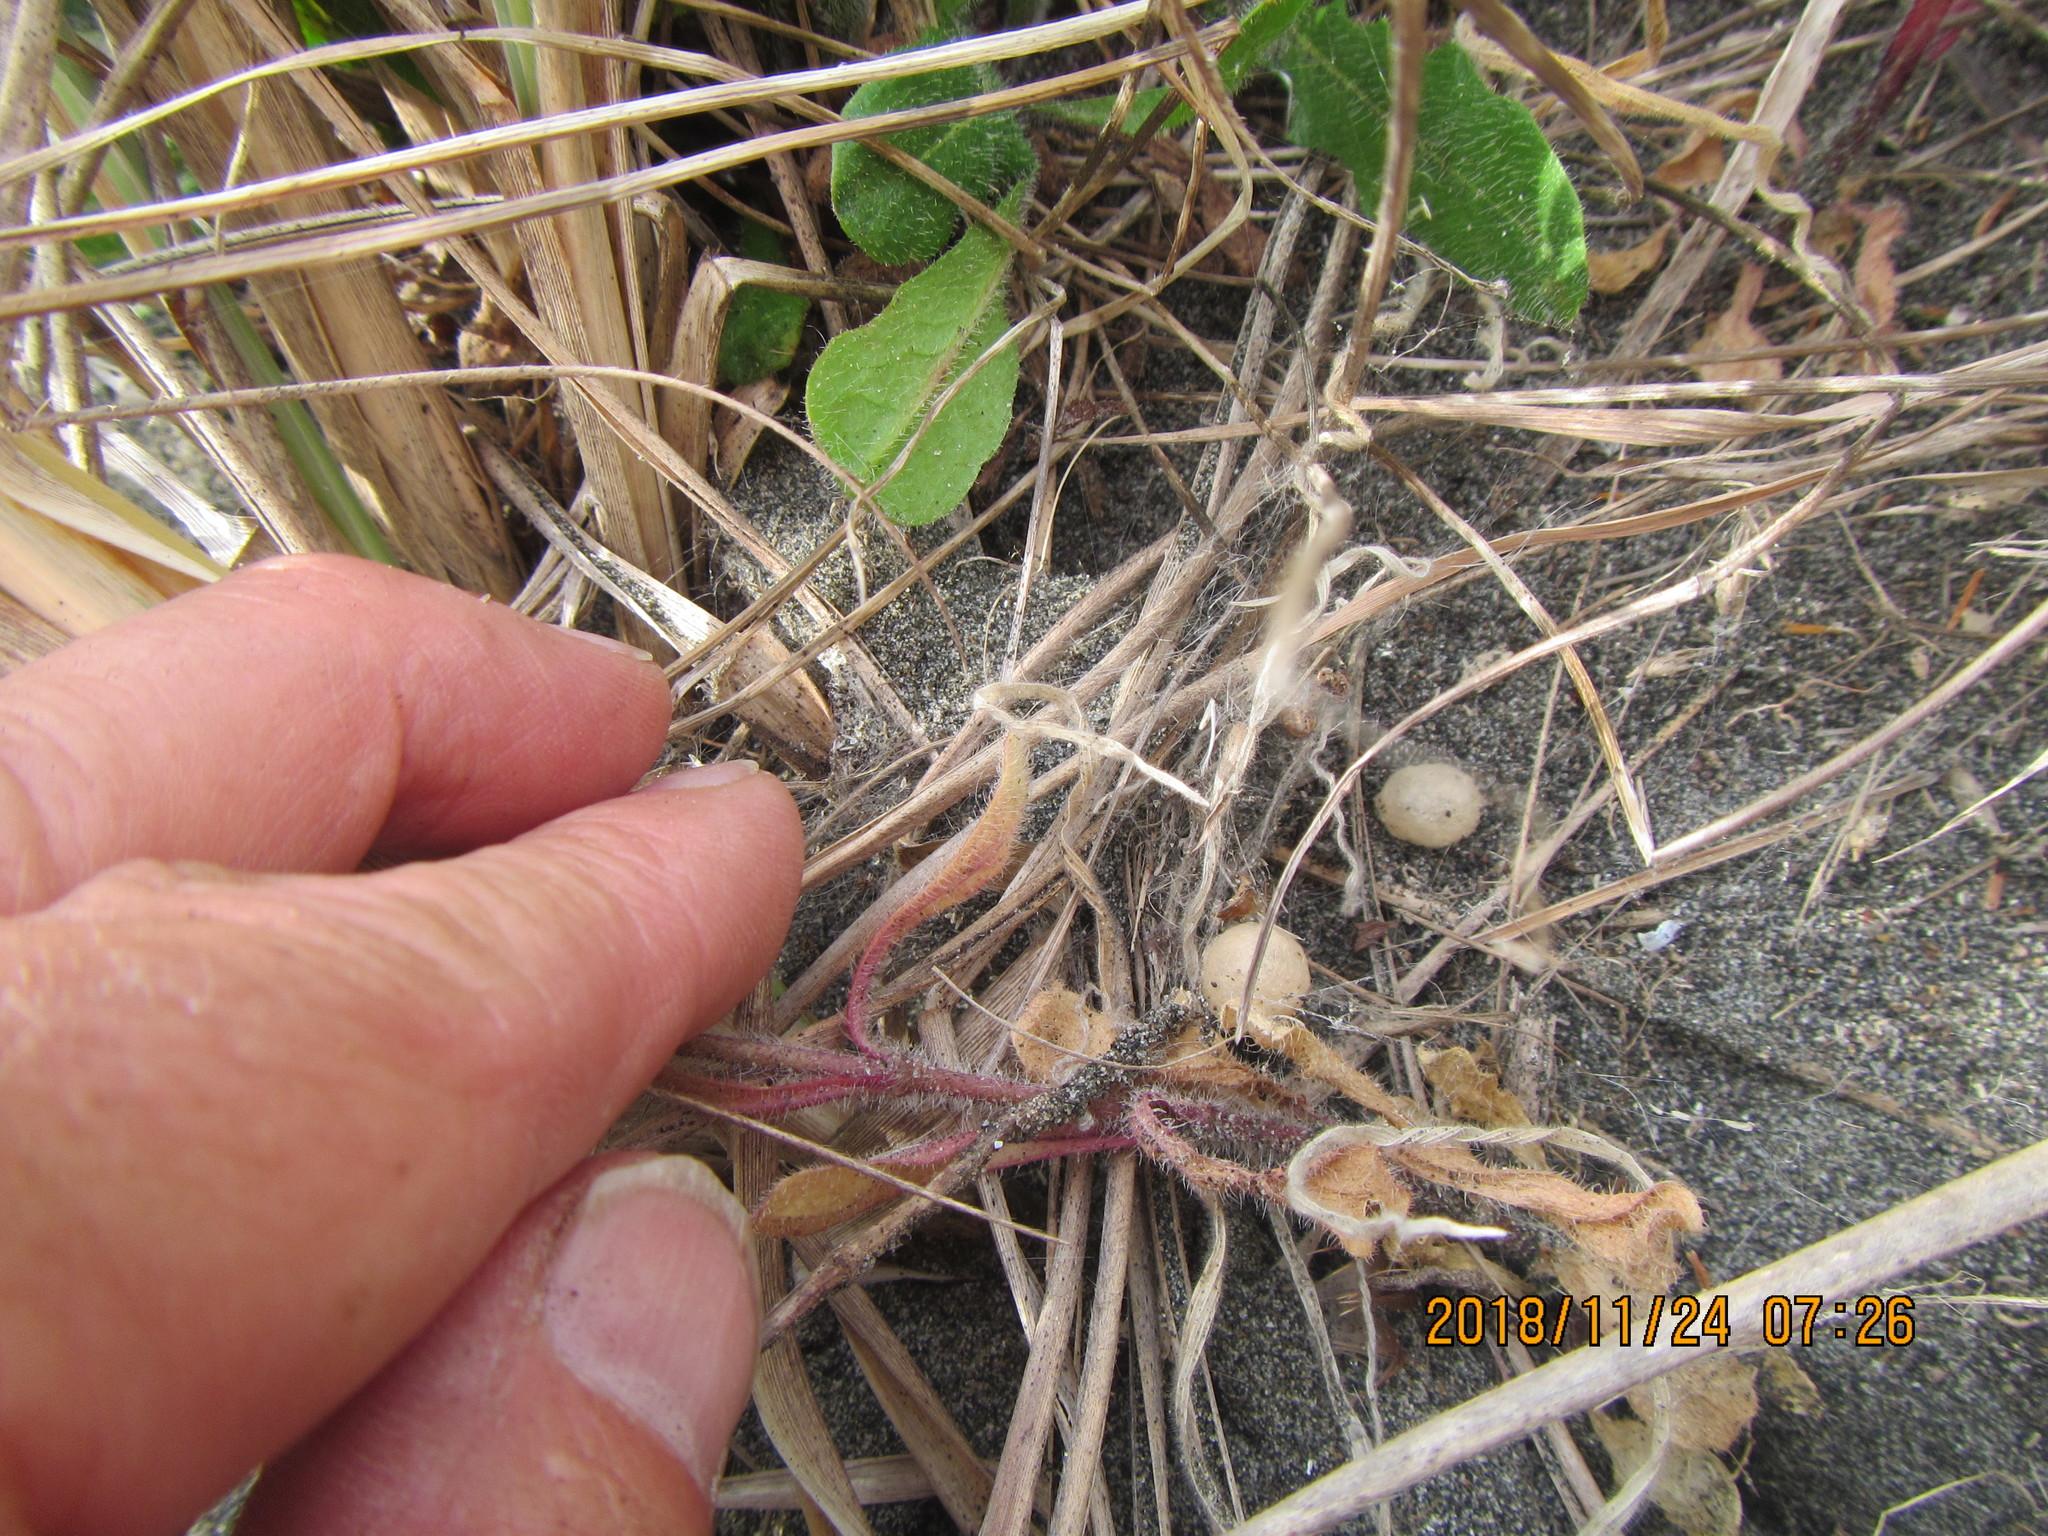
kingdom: Animalia
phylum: Arthropoda
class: Arachnida
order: Araneae
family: Theridiidae
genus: Latrodectus
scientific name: Latrodectus katipo
